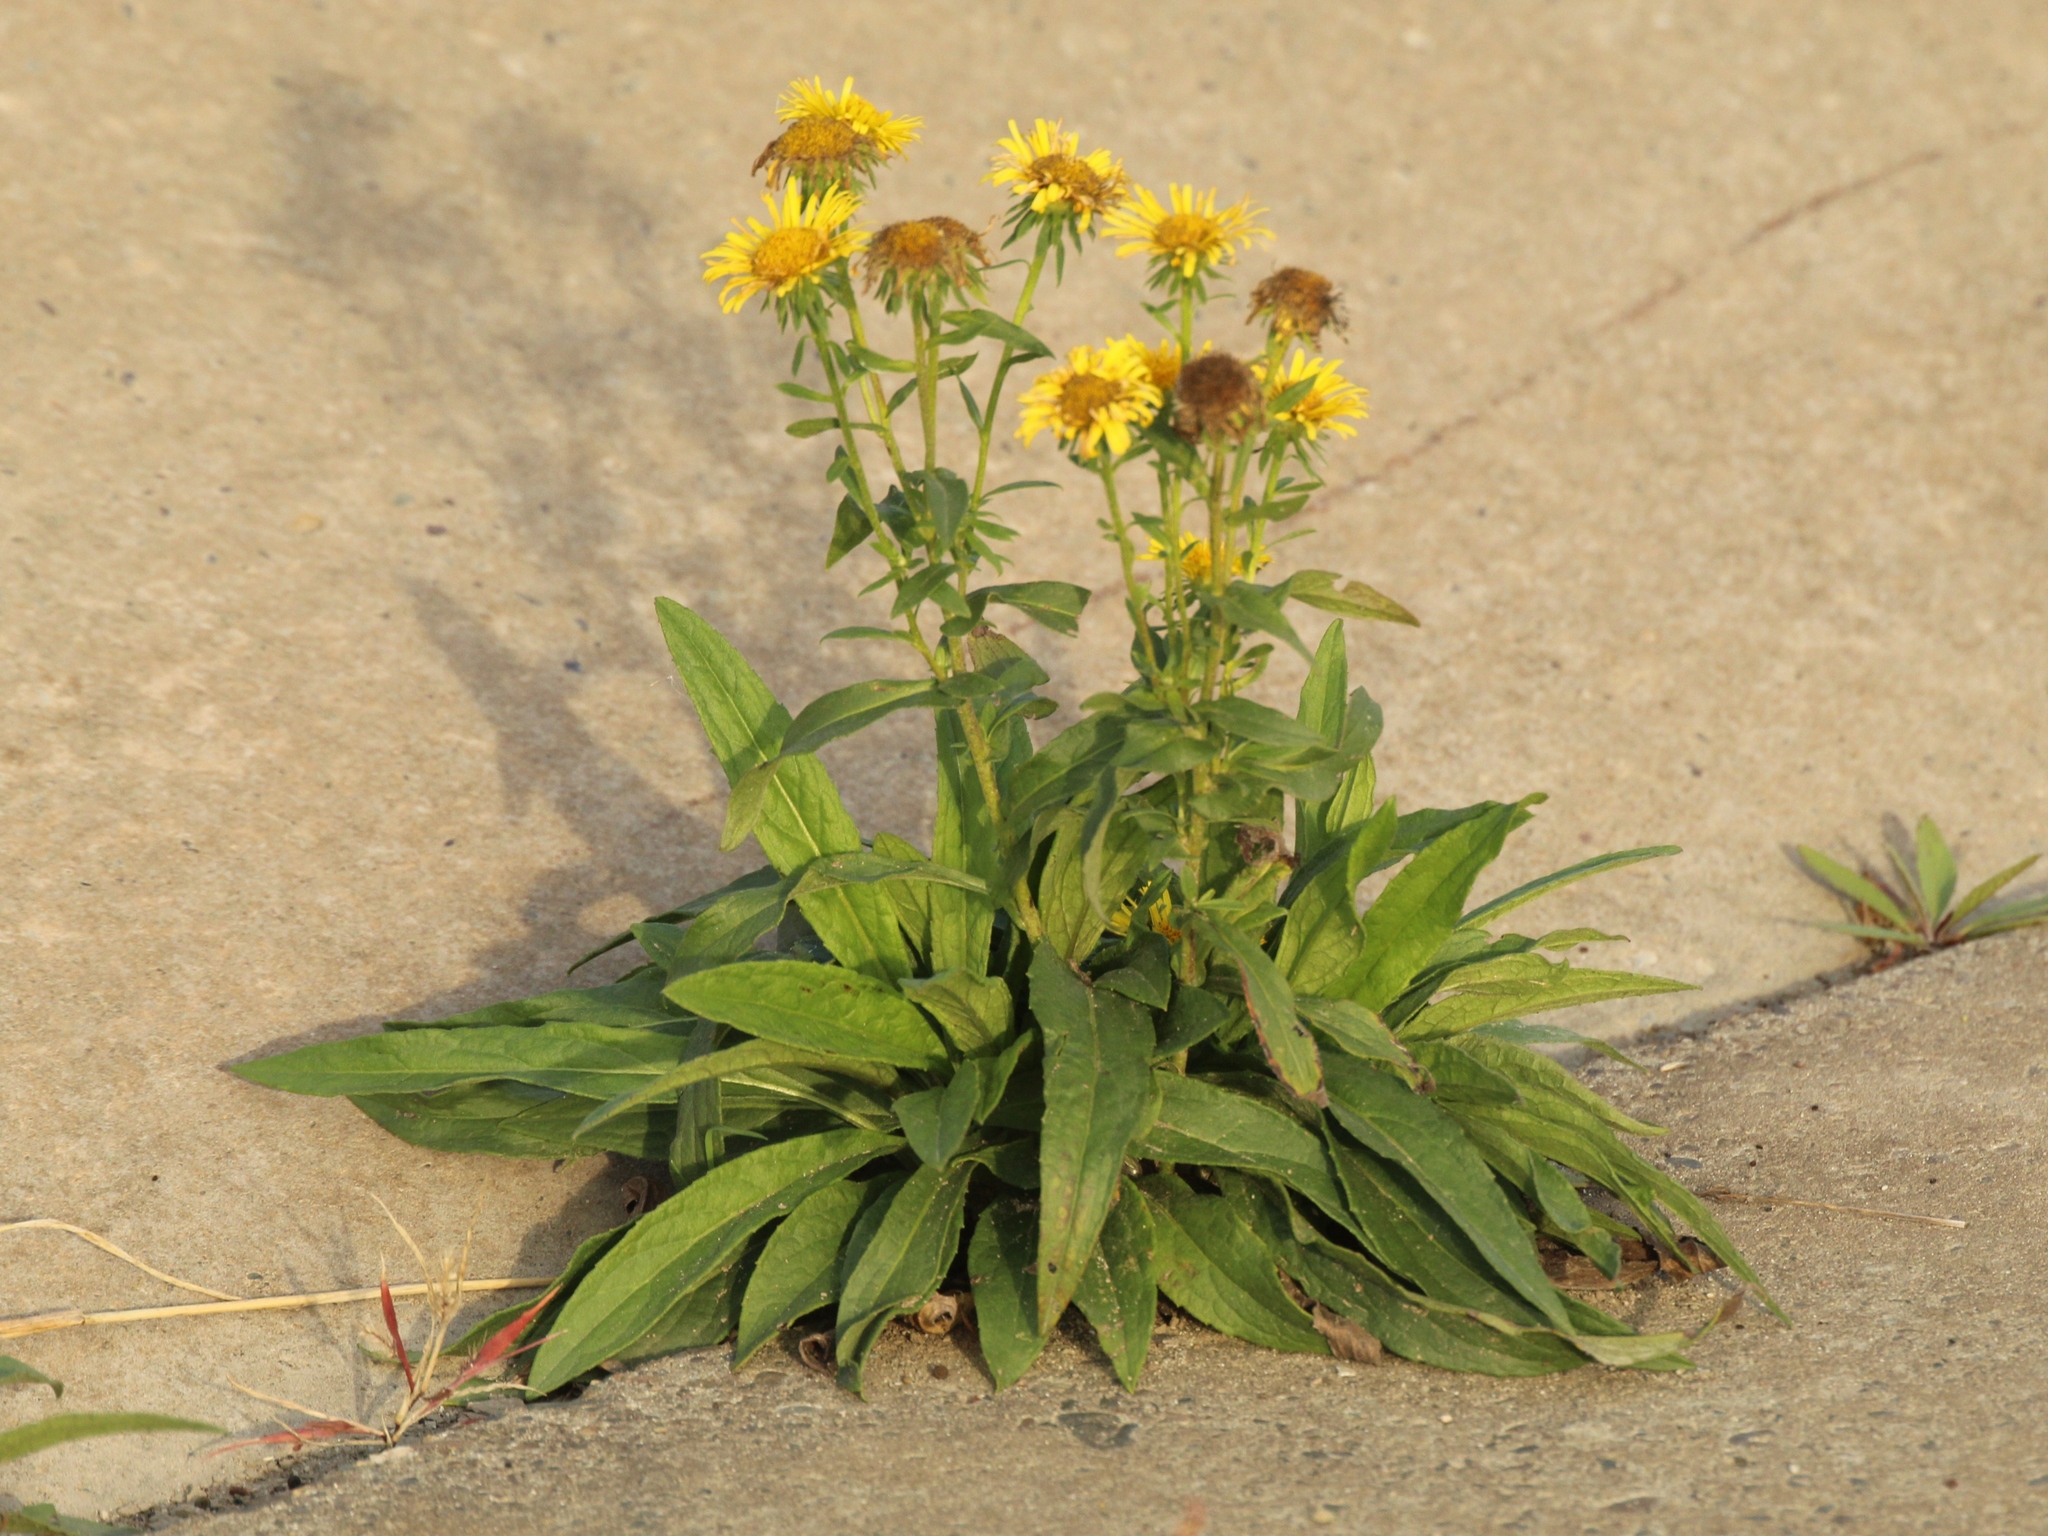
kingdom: Plantae
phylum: Tracheophyta
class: Magnoliopsida
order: Asterales
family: Asteraceae
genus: Pentanema
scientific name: Pentanema britannicum
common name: British elecampane
